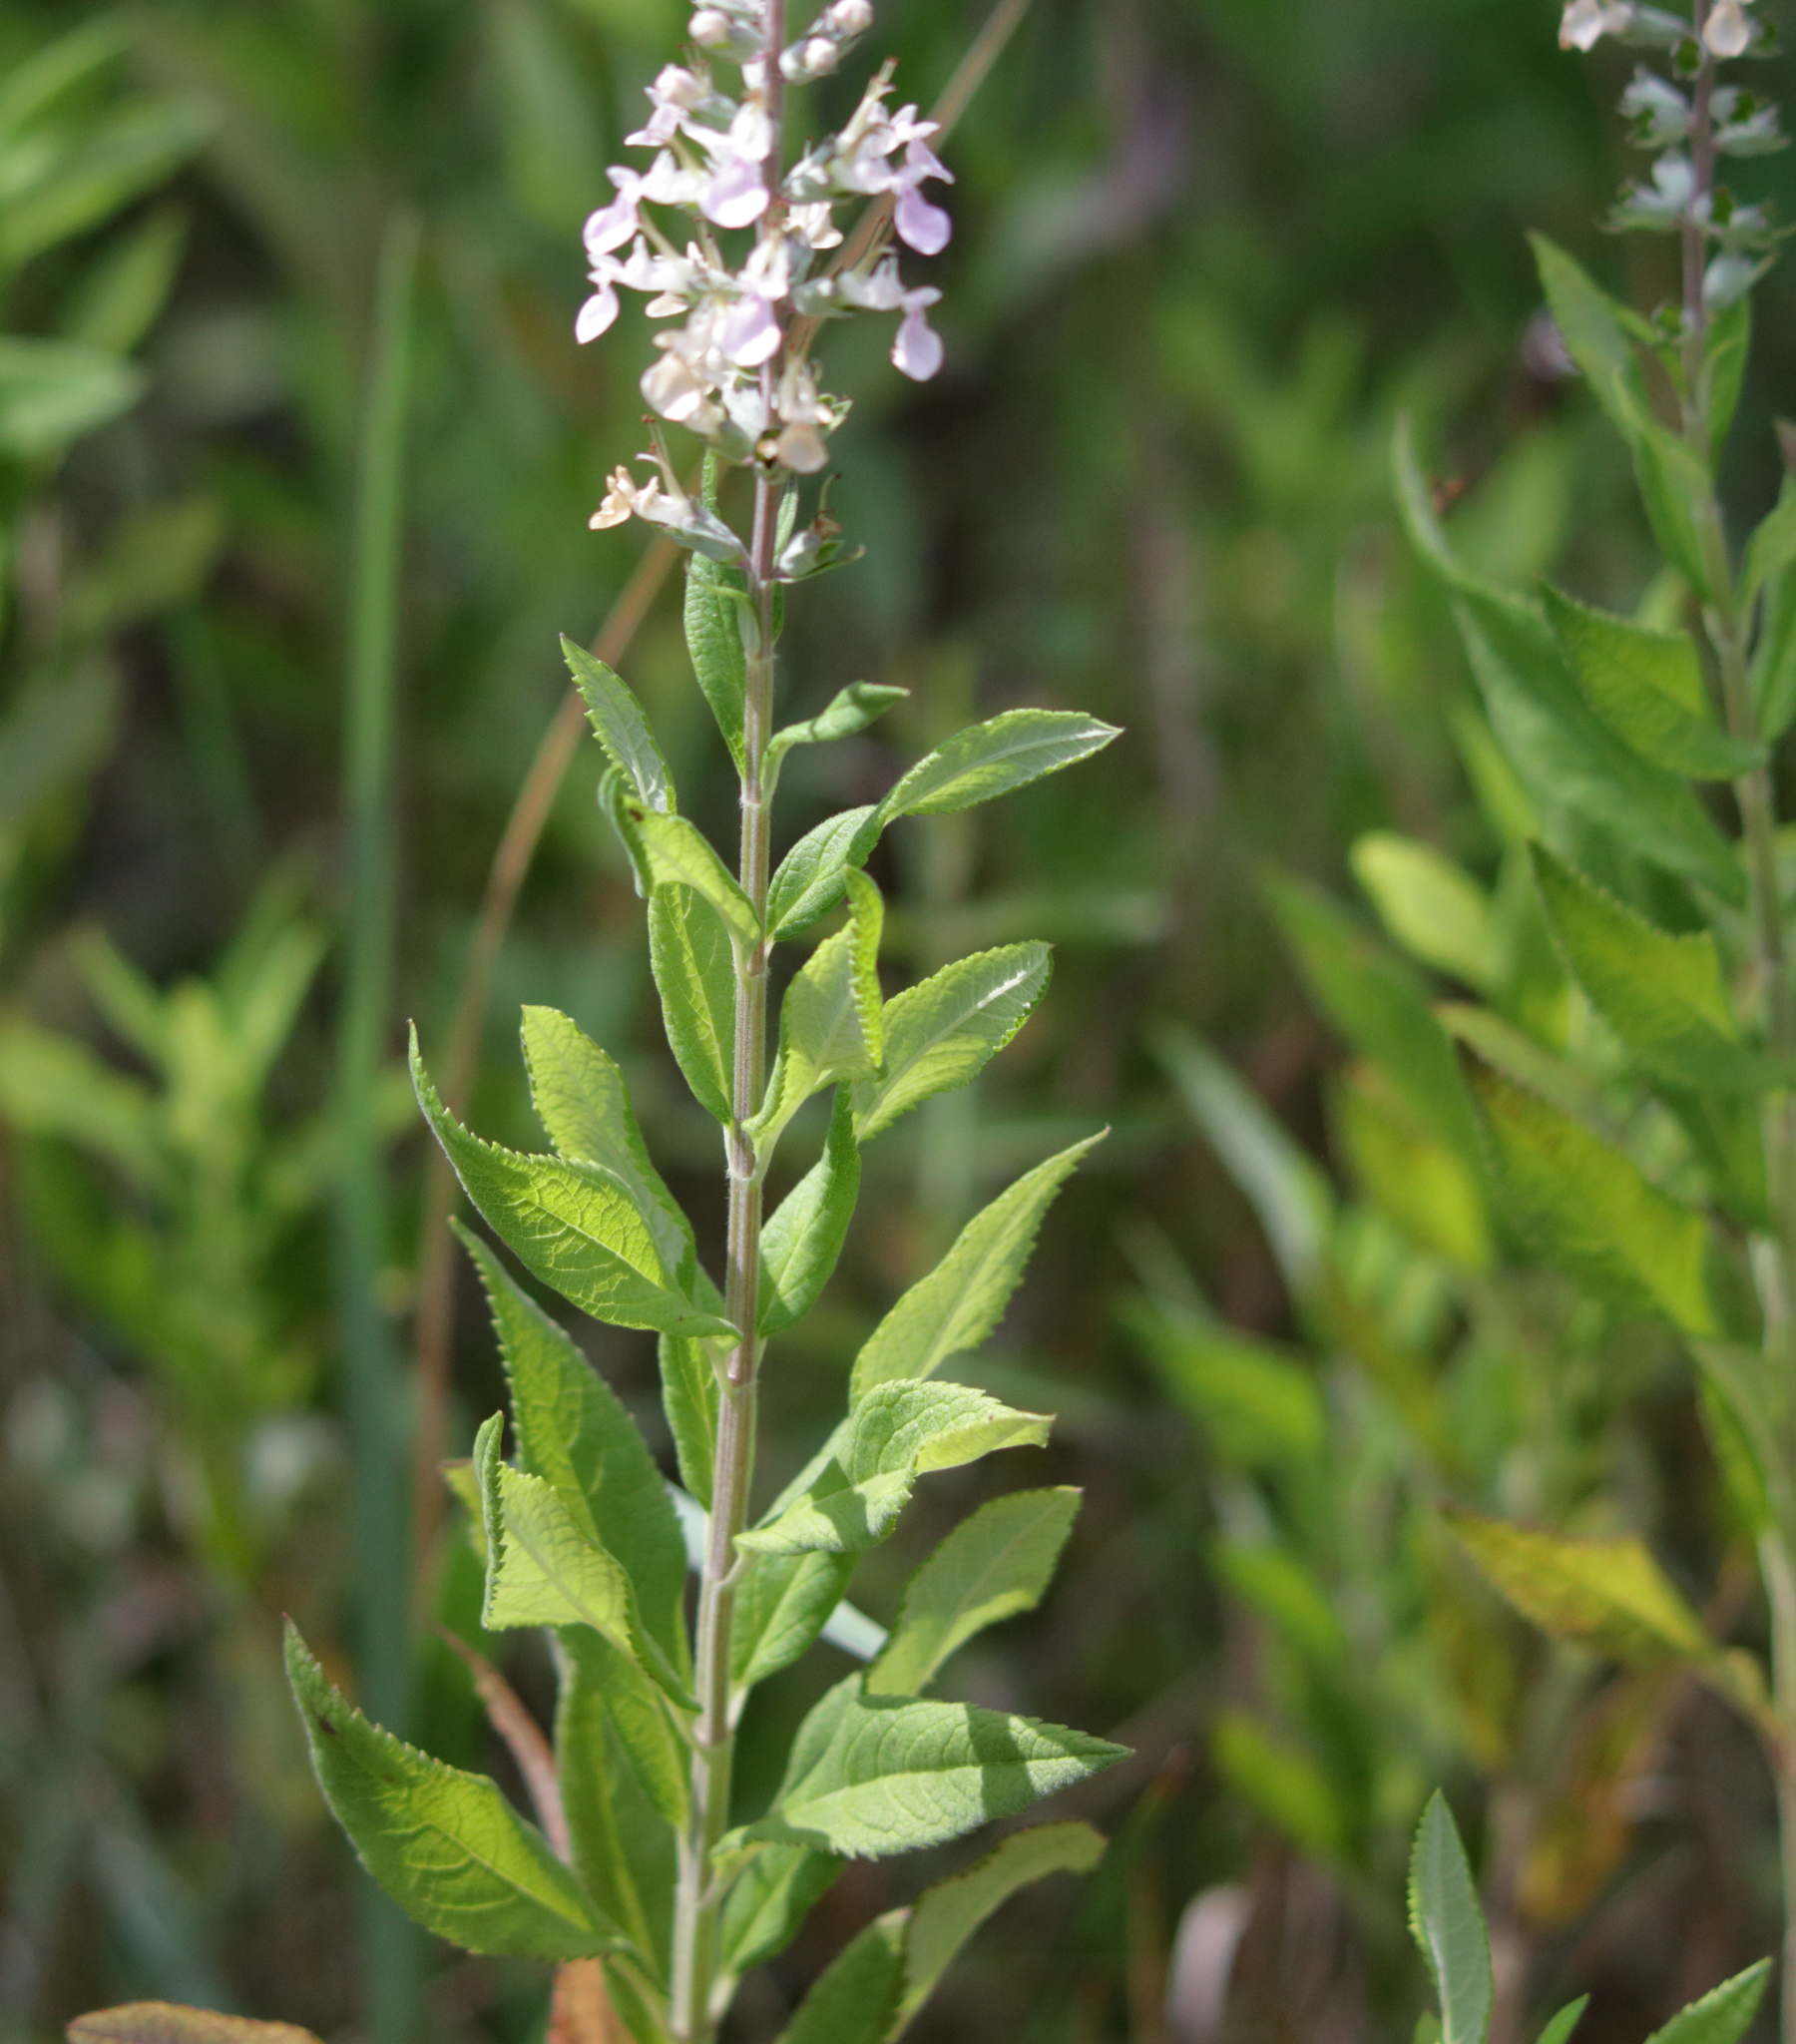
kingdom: Plantae
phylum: Tracheophyta
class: Magnoliopsida
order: Lamiales
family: Lamiaceae
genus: Teucrium
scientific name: Teucrium canadense
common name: American germander
